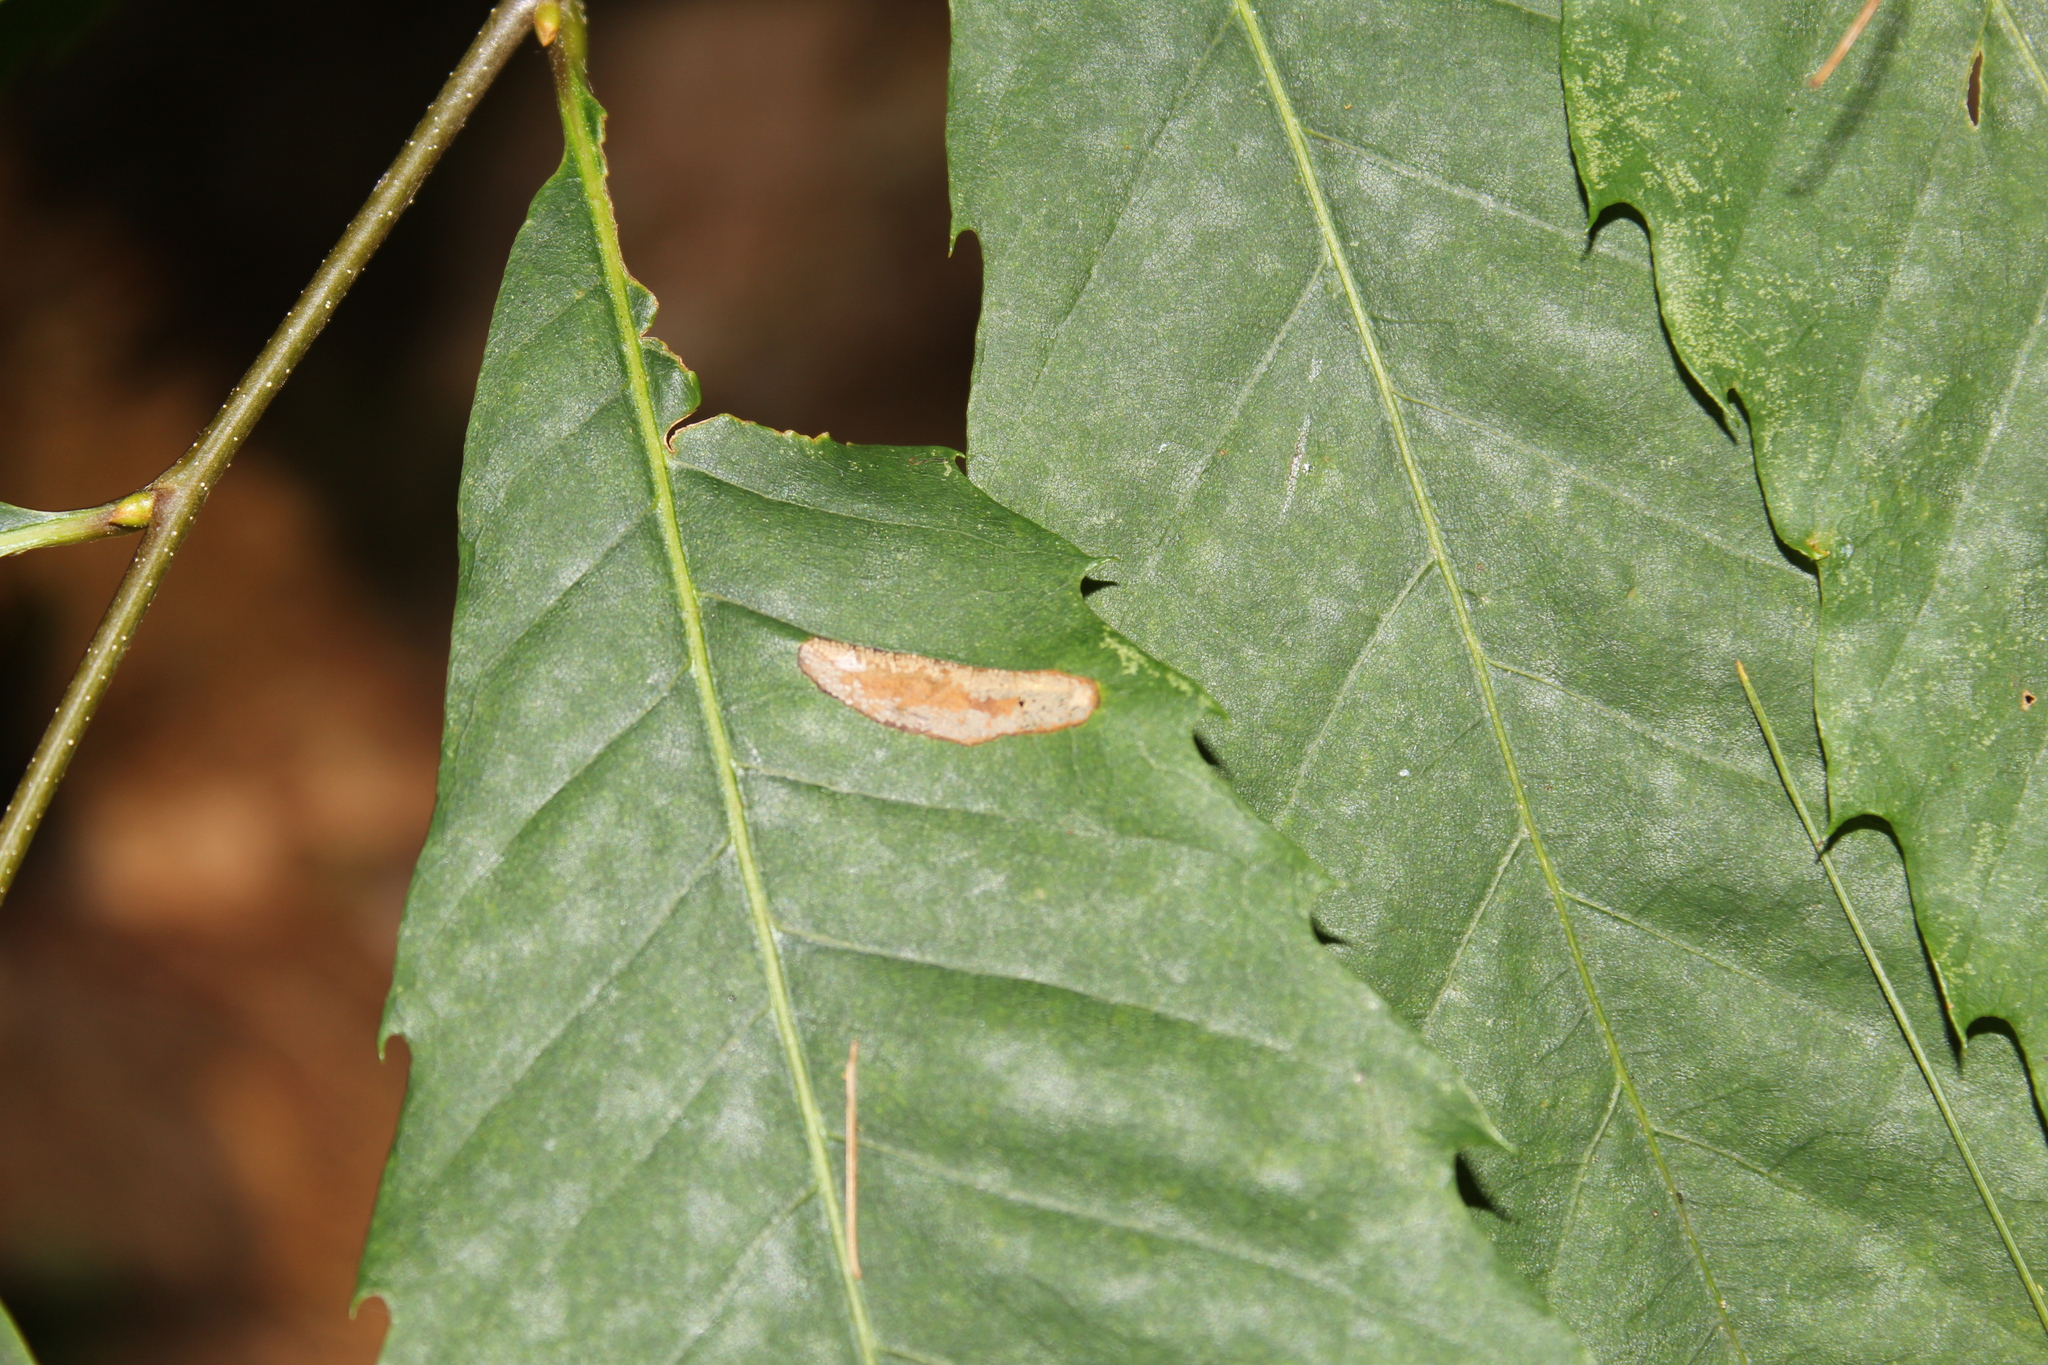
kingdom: Animalia
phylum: Arthropoda
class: Insecta
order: Lepidoptera
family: Gracillariidae
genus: Phyllonorycter
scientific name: Phyllonorycter kearfottella
